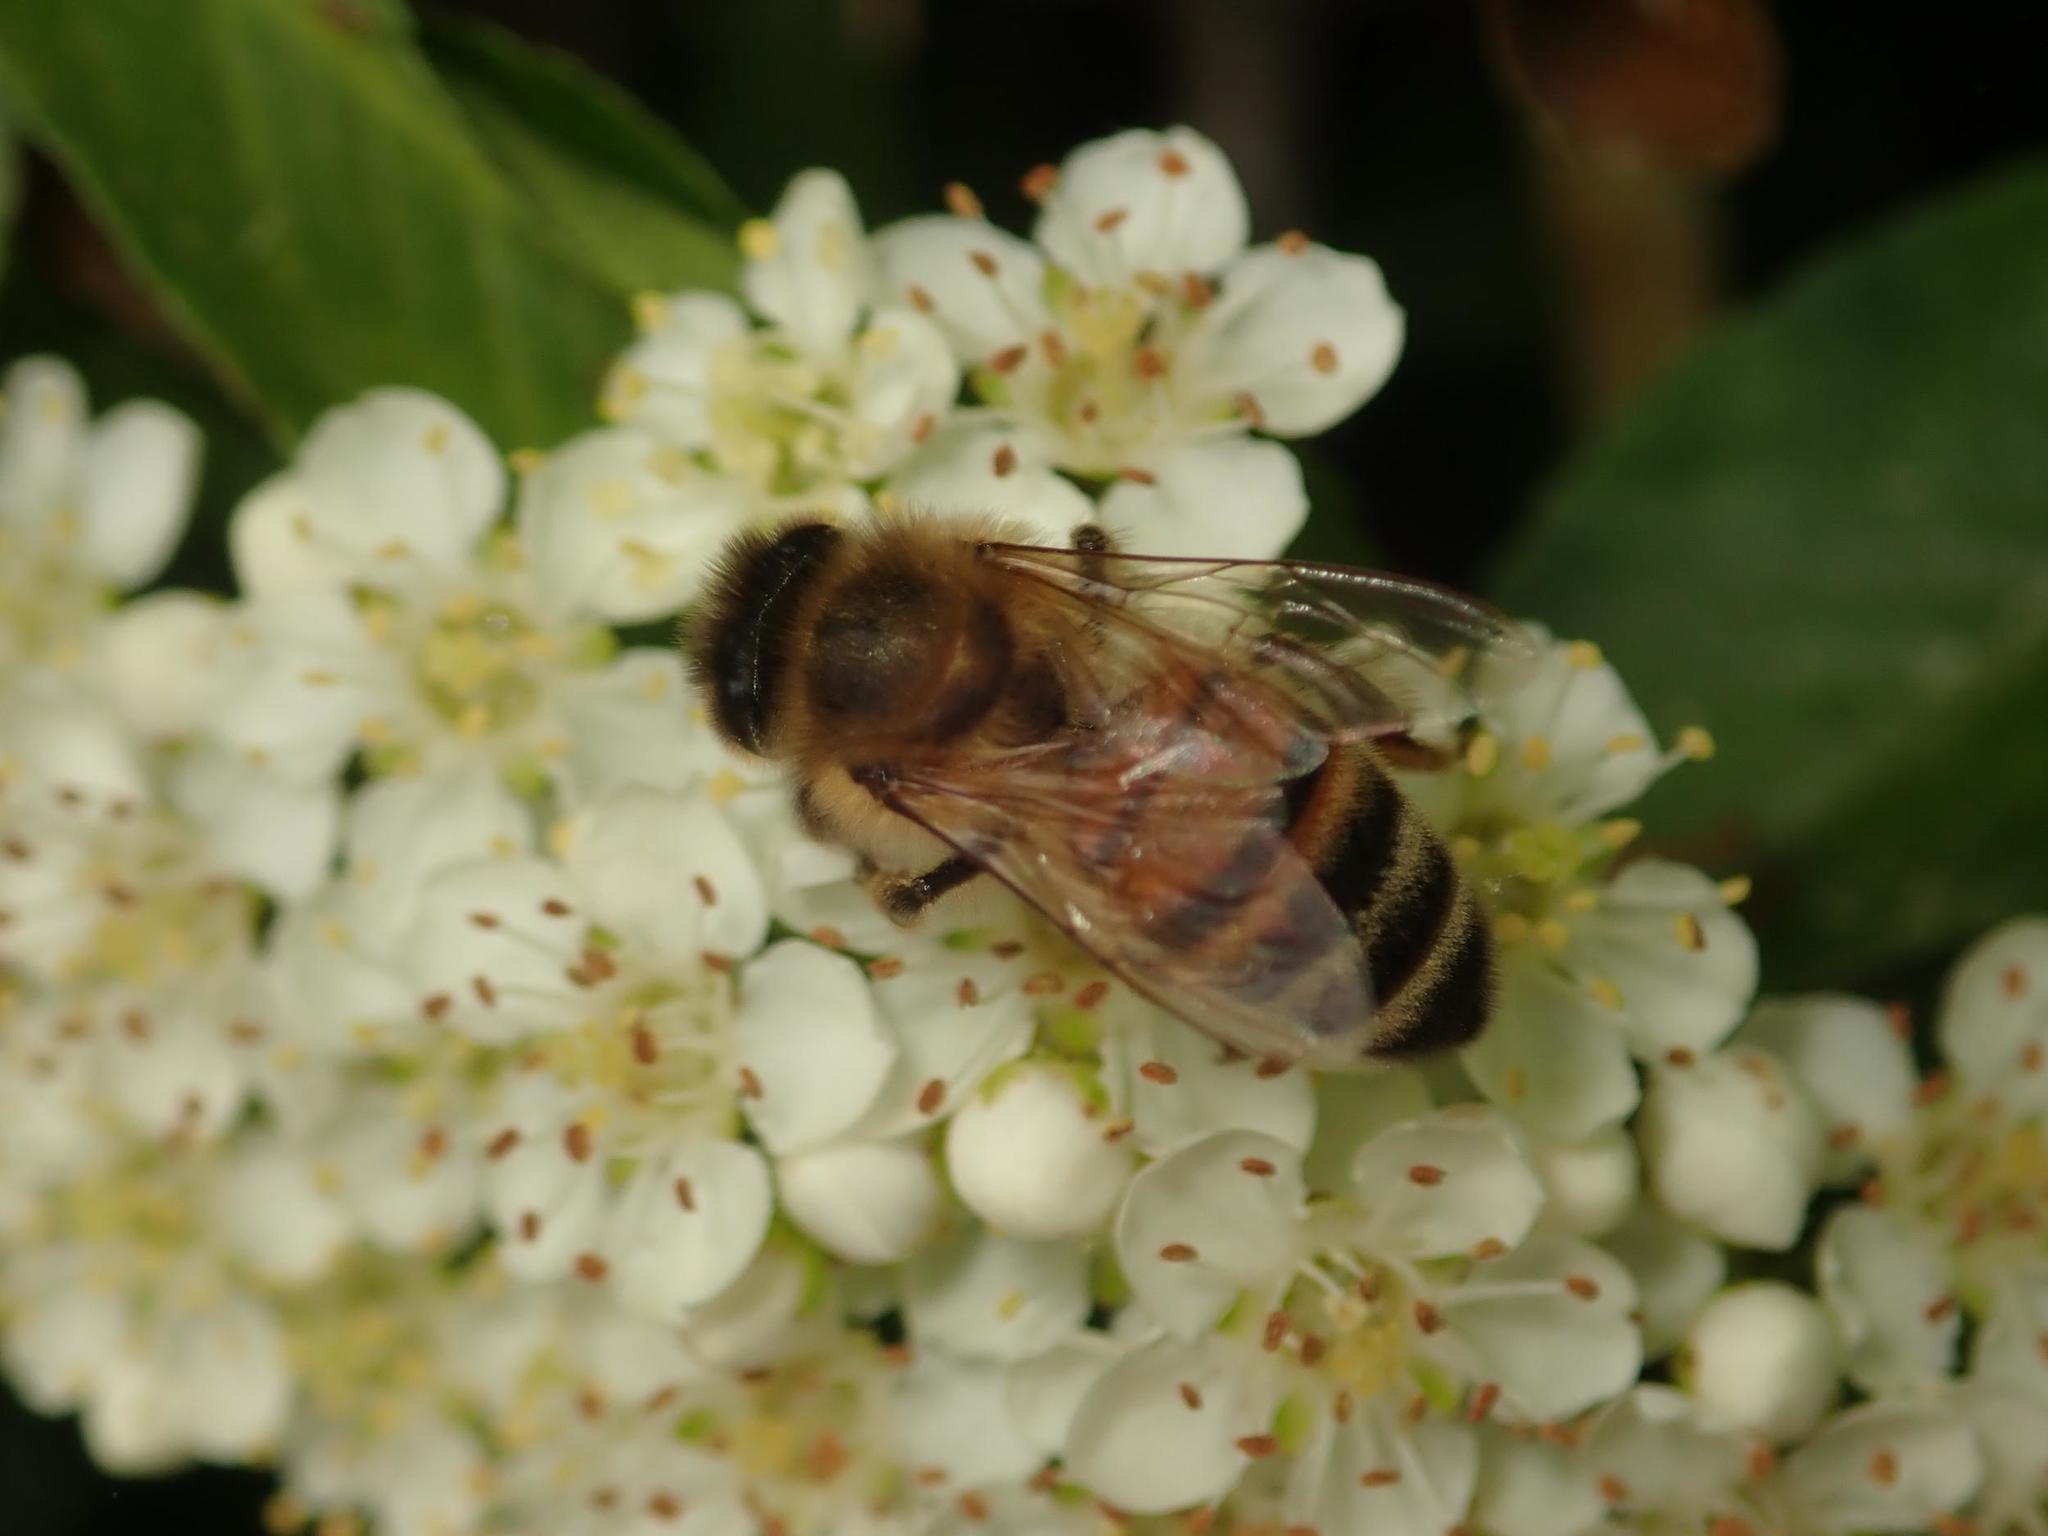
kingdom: Animalia
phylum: Arthropoda
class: Insecta
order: Hymenoptera
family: Apidae
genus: Apis
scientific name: Apis mellifera
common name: Honey bee
